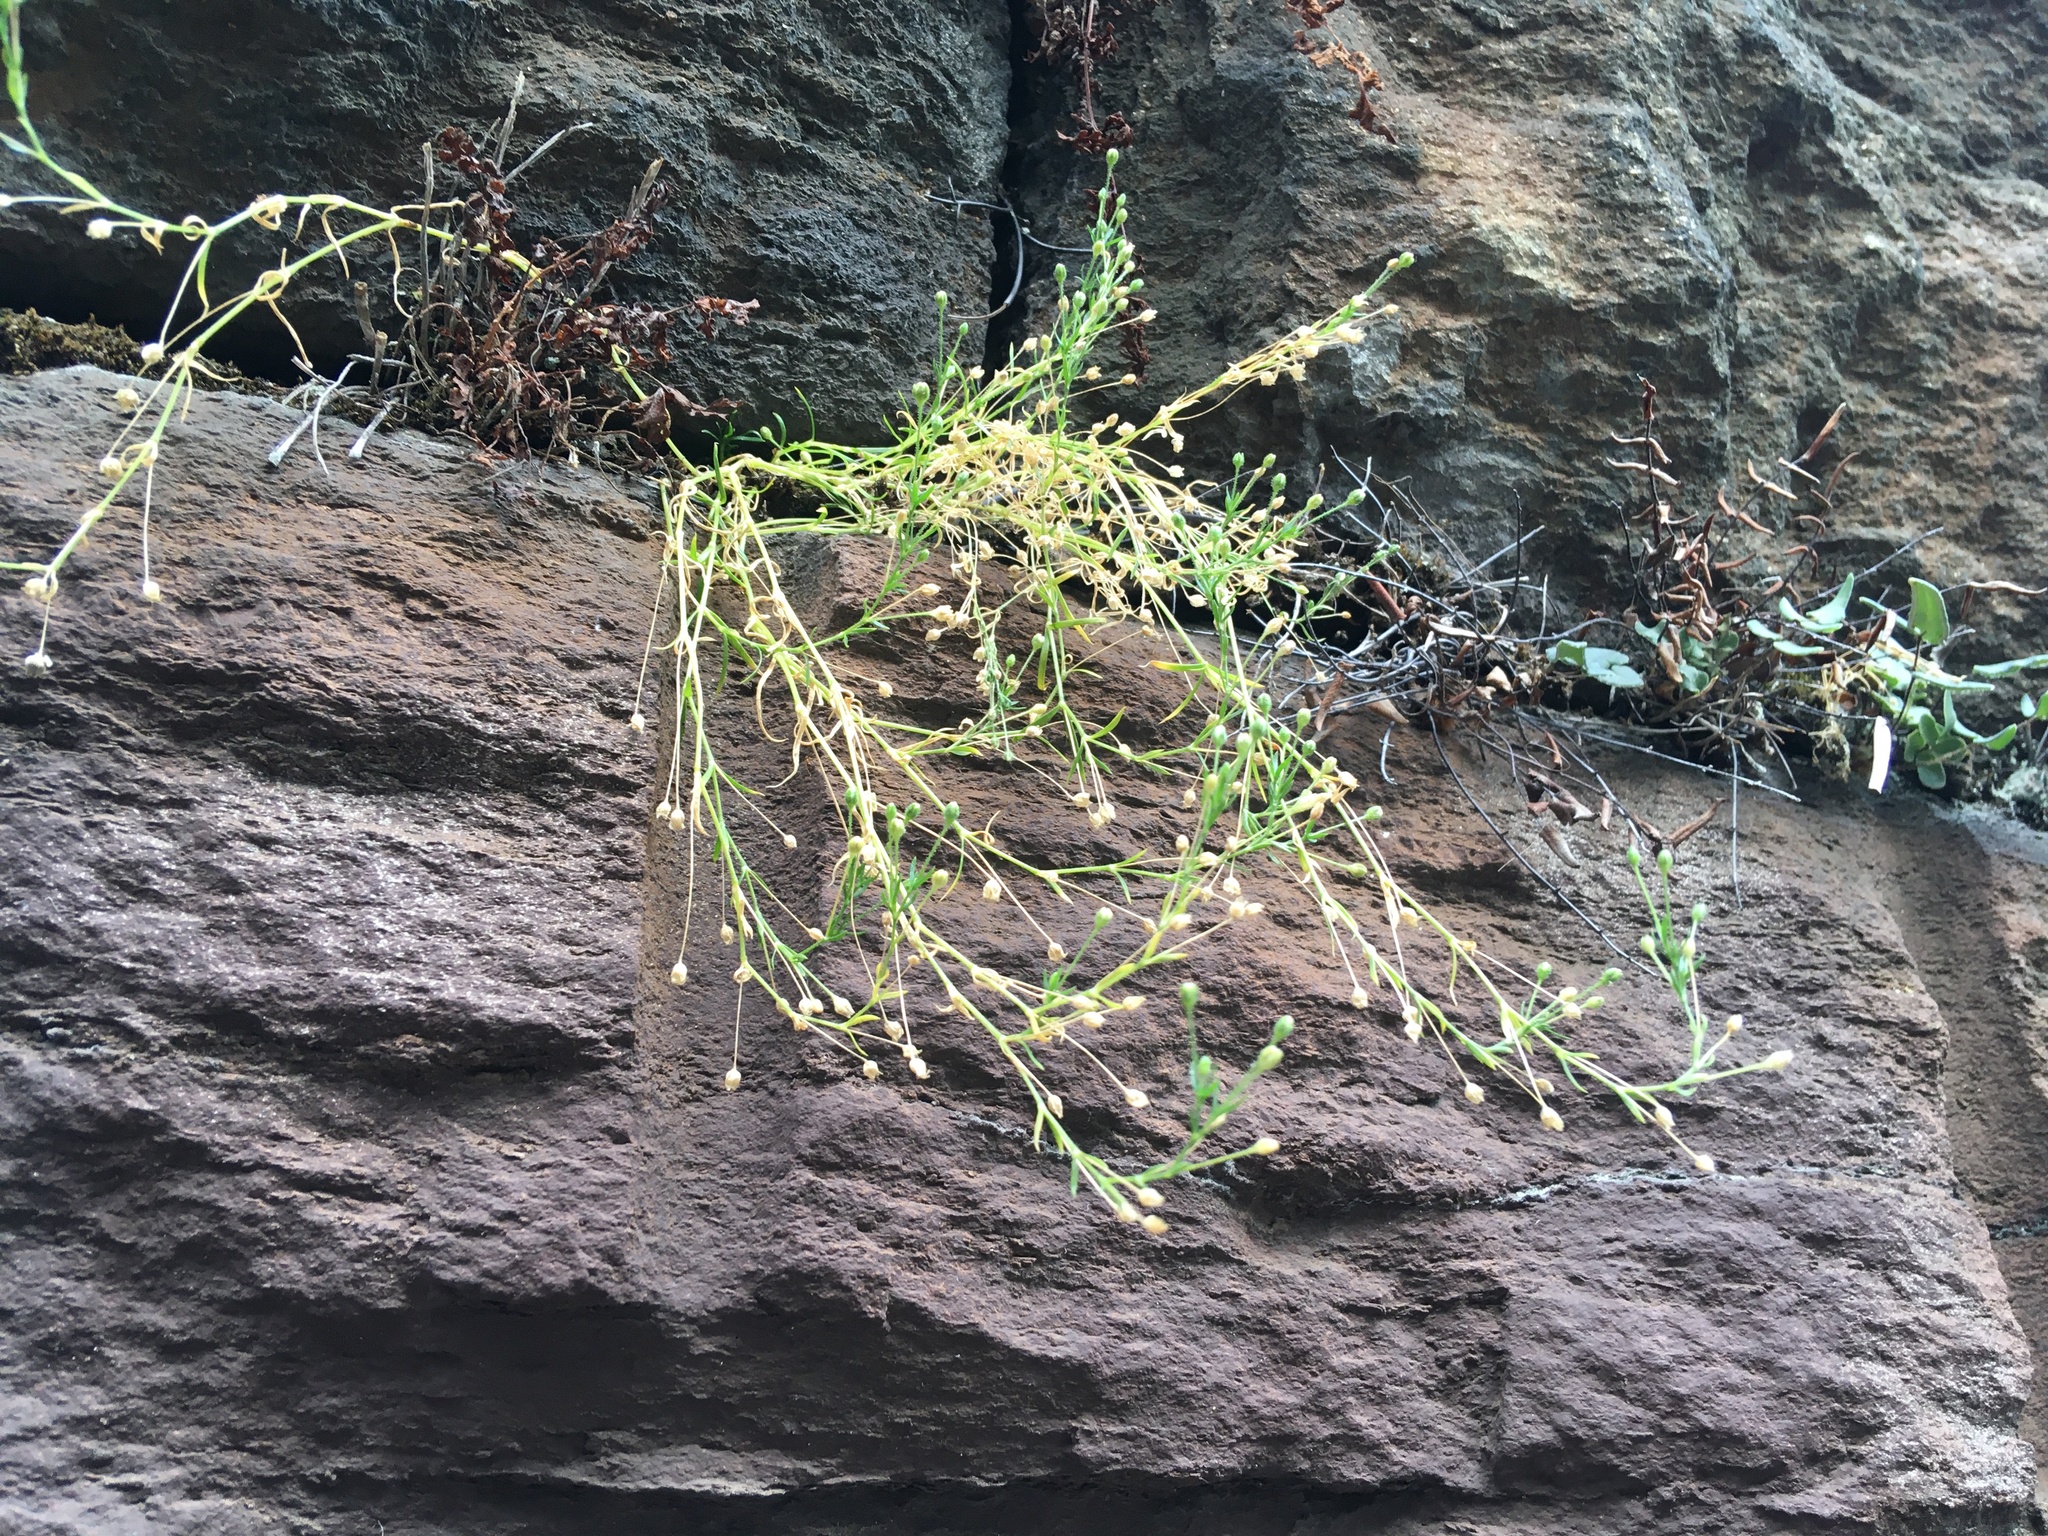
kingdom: Plantae
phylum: Tracheophyta
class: Magnoliopsida
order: Caryophyllales
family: Caryophyllaceae
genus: Sagina
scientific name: Sagina japonica
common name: Japanese pearlwort
